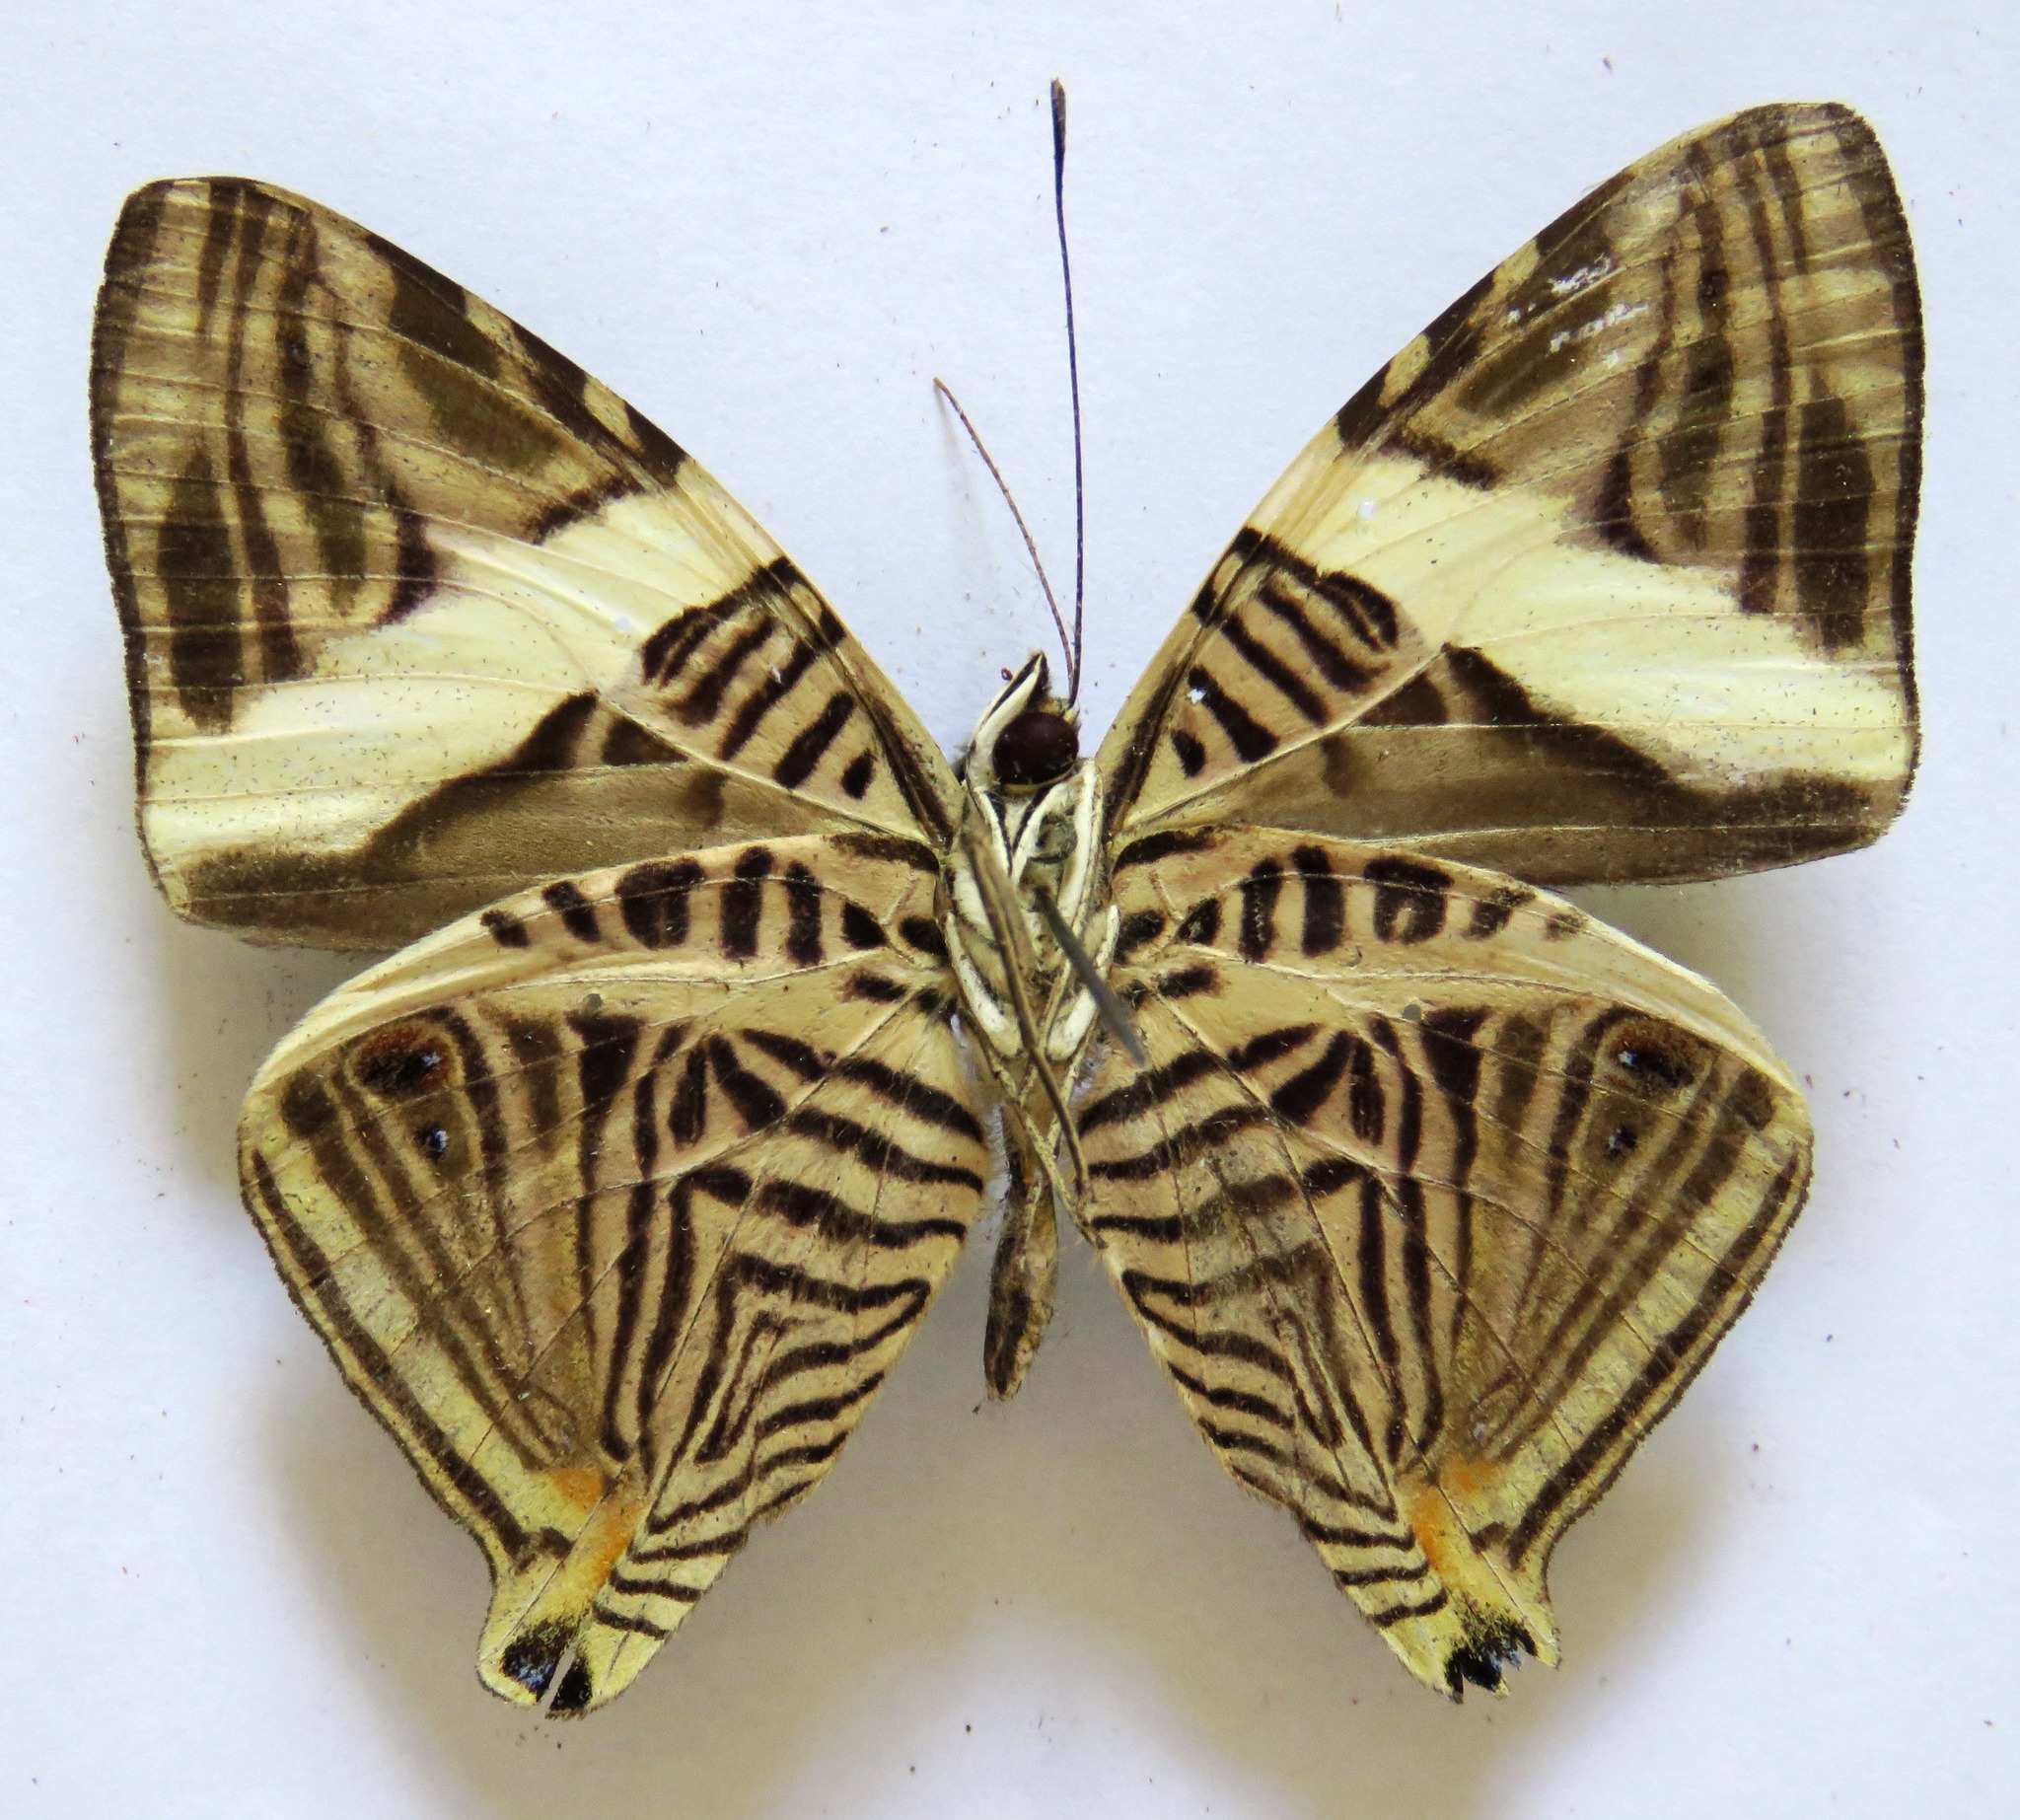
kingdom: Animalia
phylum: Arthropoda
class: Insecta
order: Lepidoptera
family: Nymphalidae
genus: Colobura
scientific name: Colobura dirce
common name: Dirce beauty
